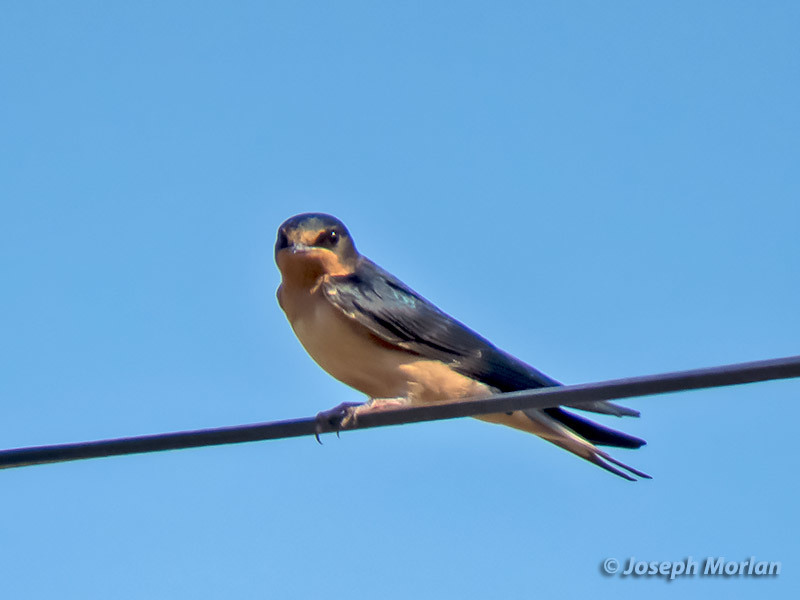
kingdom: Animalia
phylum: Chordata
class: Aves
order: Passeriformes
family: Hirundinidae
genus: Hirundo
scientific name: Hirundo rustica
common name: Barn swallow
